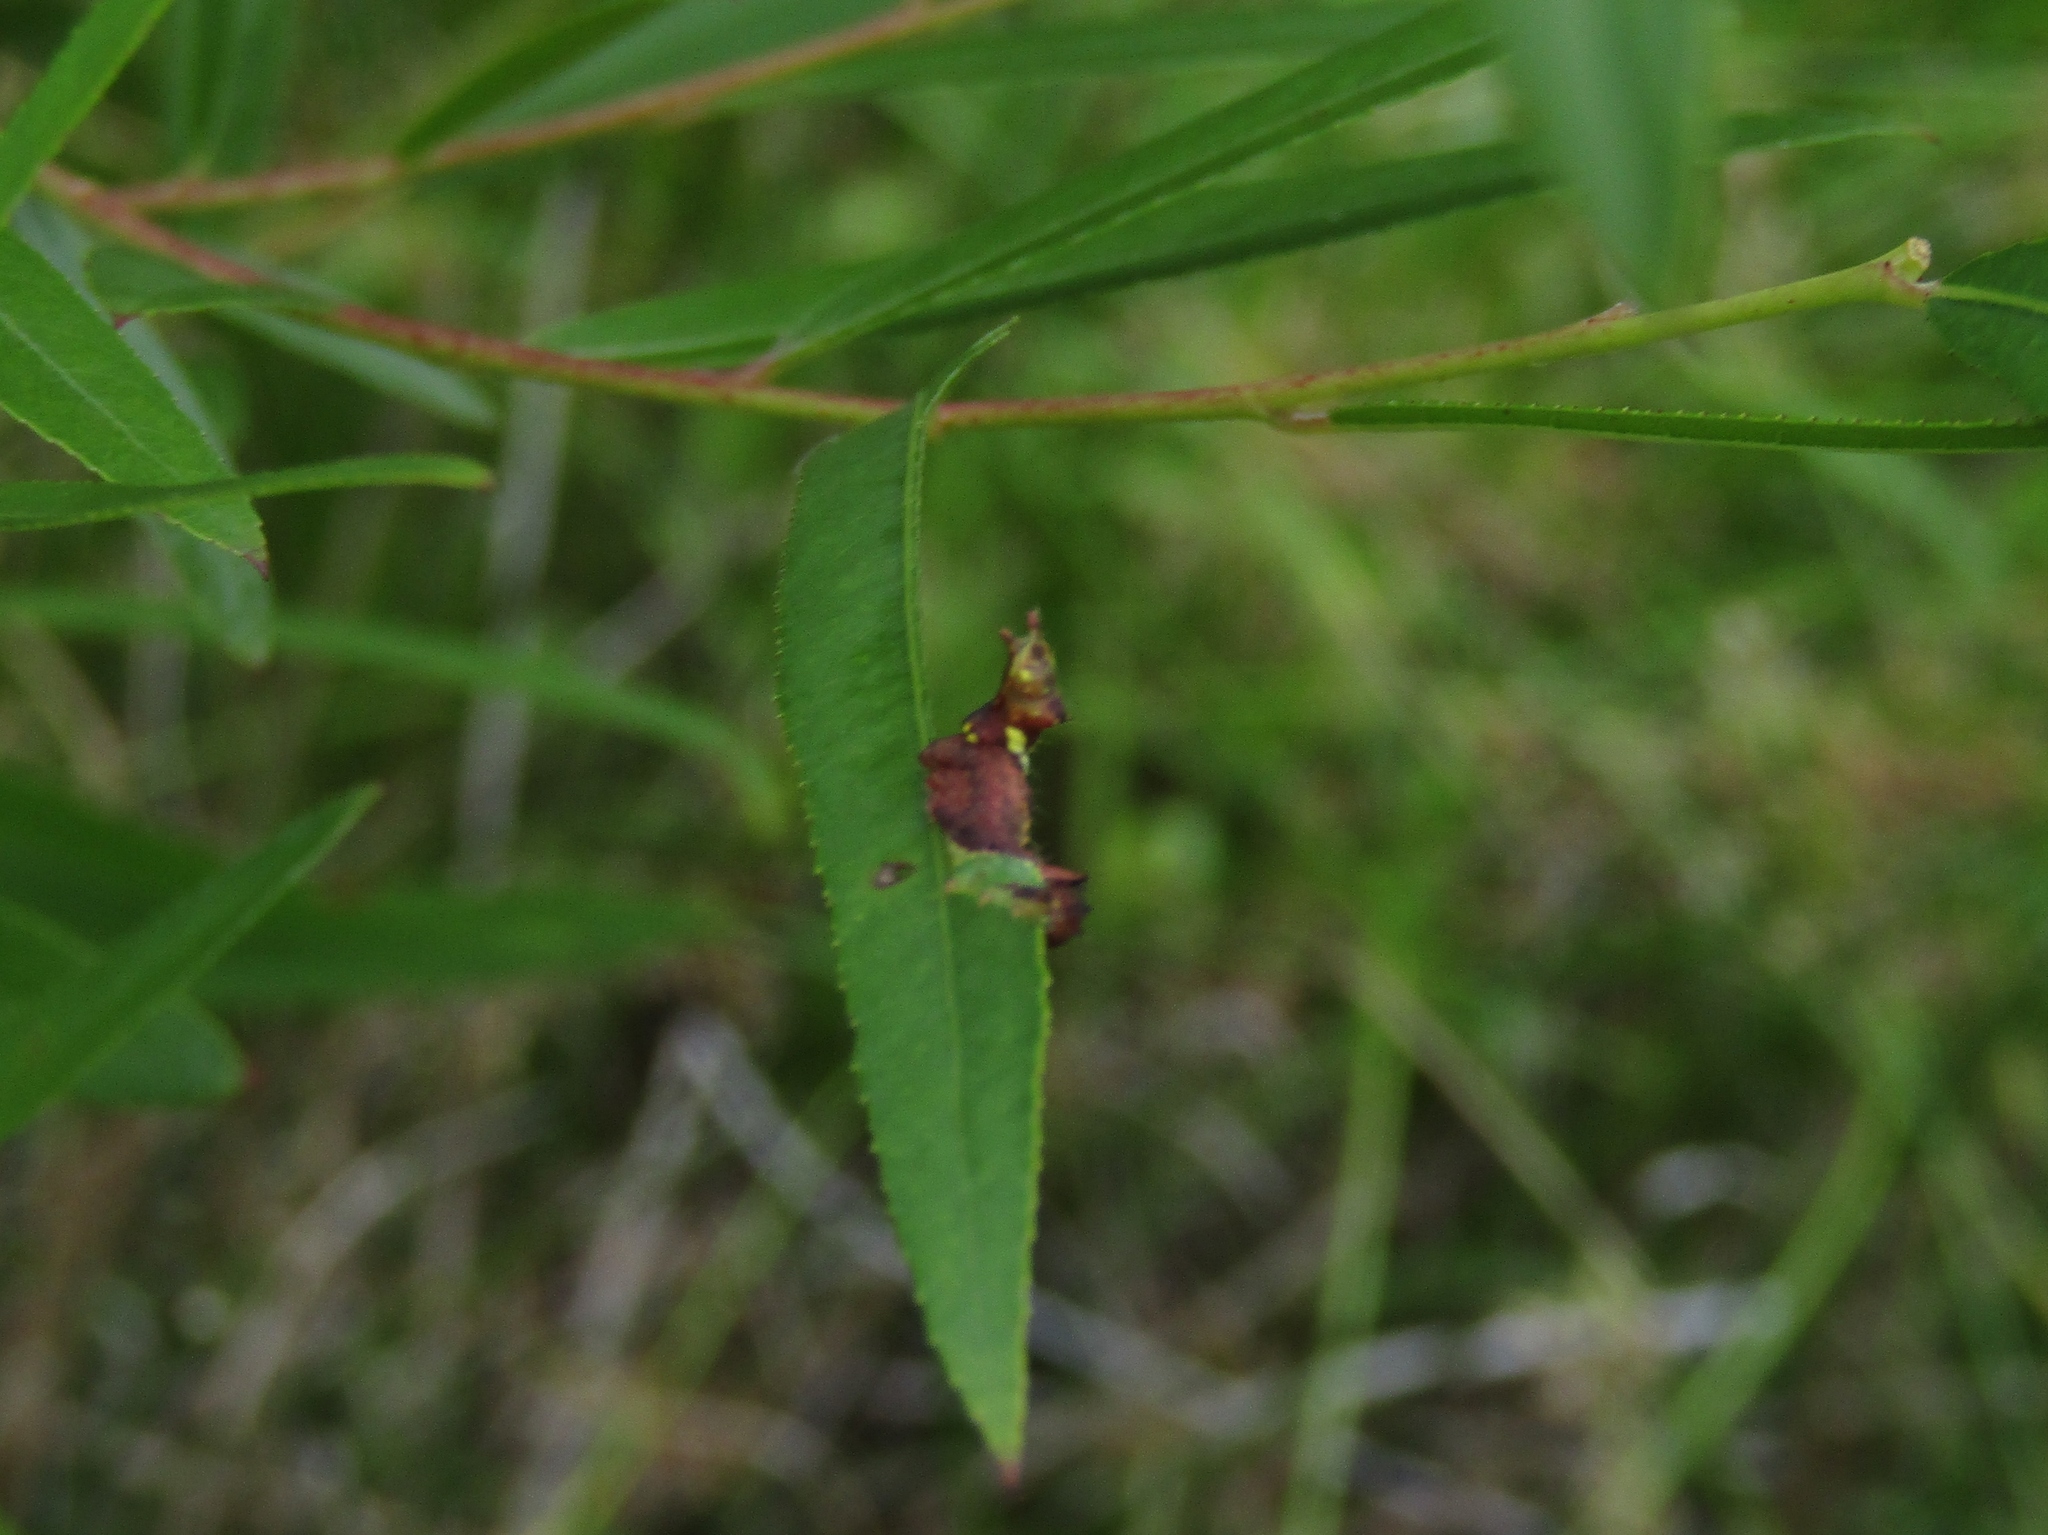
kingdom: Animalia
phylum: Arthropoda
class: Insecta
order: Lepidoptera
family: Notodontidae
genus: Schizura
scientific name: Schizura
